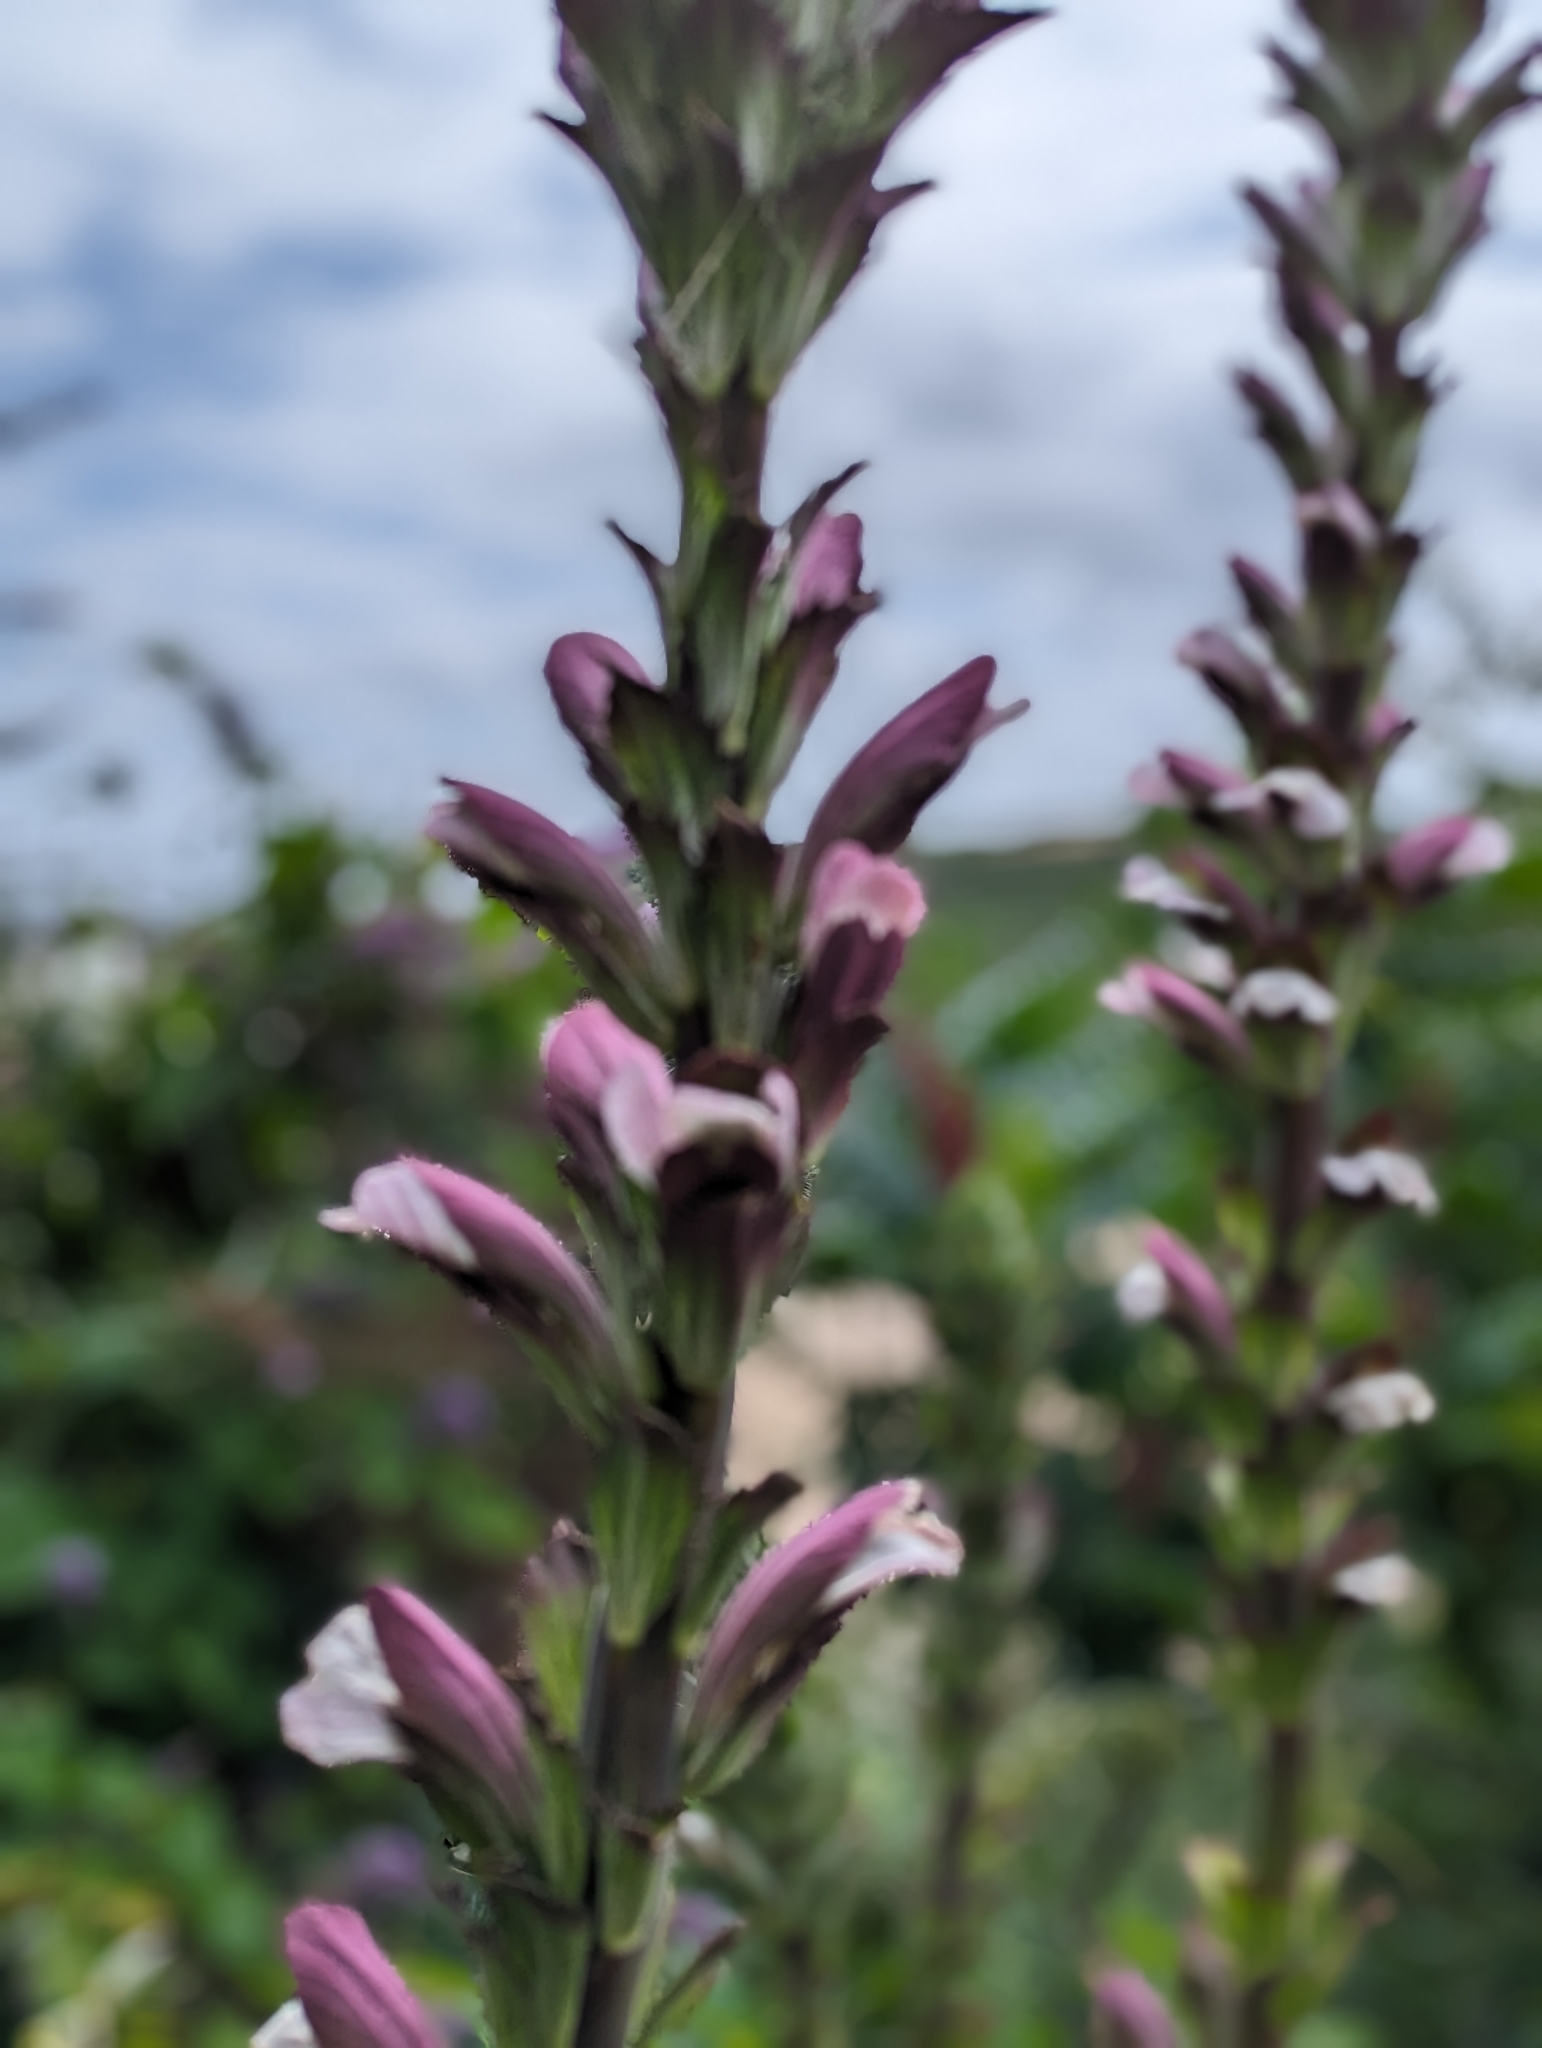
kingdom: Plantae
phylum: Tracheophyta
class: Magnoliopsida
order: Lamiales
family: Acanthaceae
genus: Acanthus
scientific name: Acanthus mollis
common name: Bear's-breech
